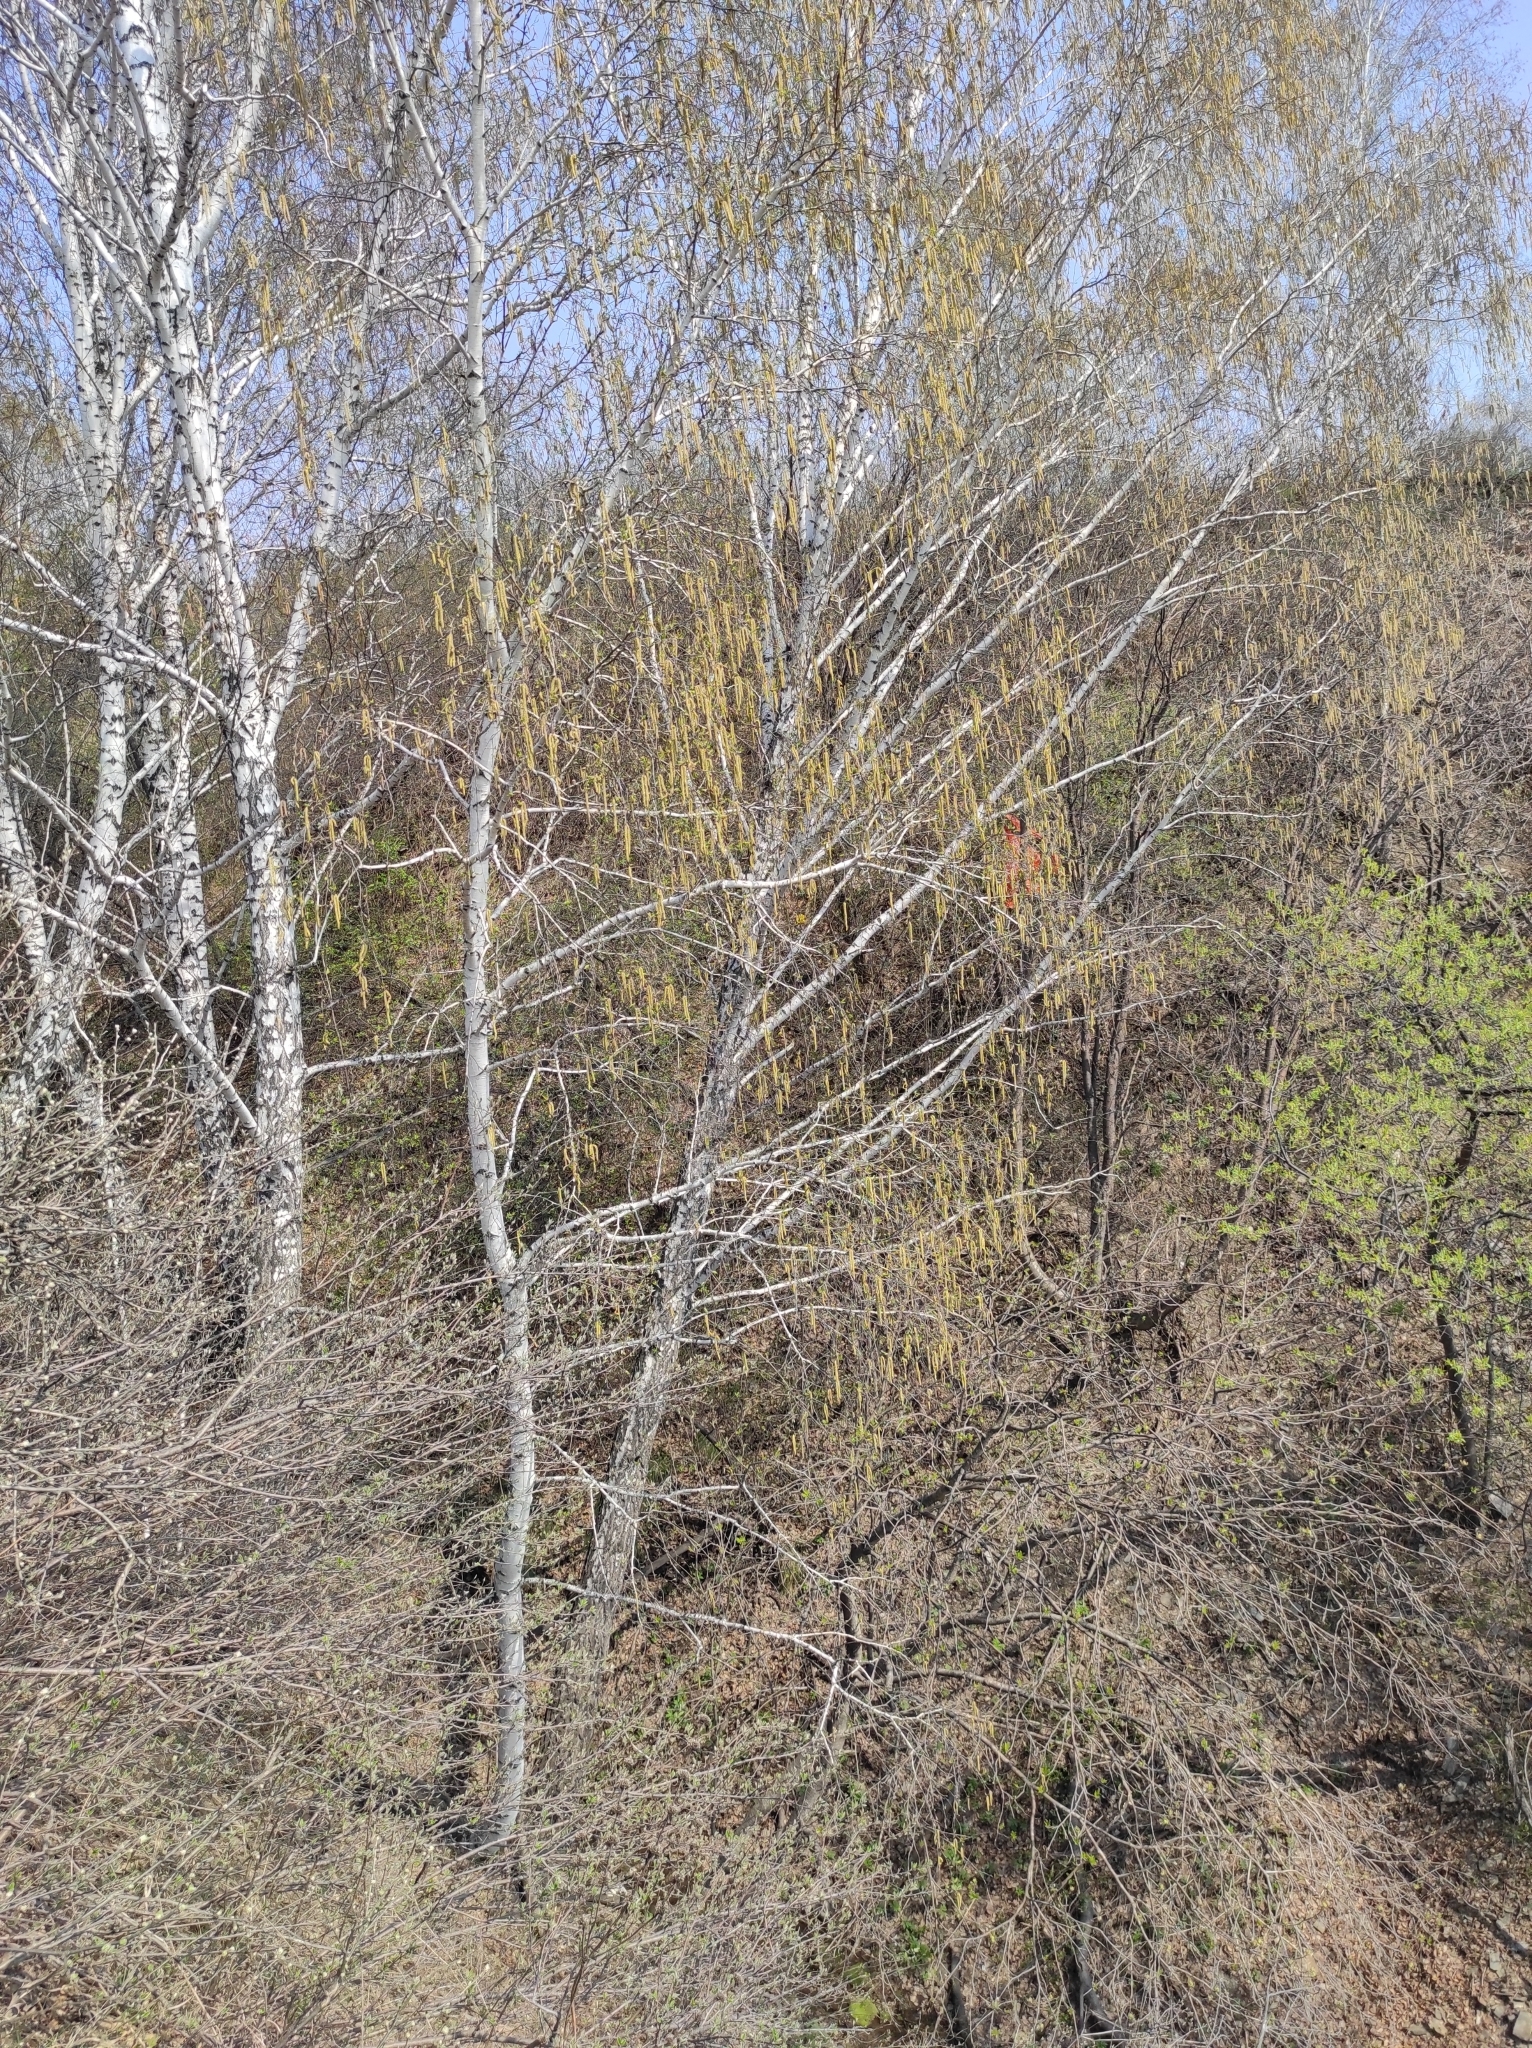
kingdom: Plantae
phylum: Tracheophyta
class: Magnoliopsida
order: Fagales
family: Betulaceae
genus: Betula
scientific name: Betula pendula
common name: Silver birch
